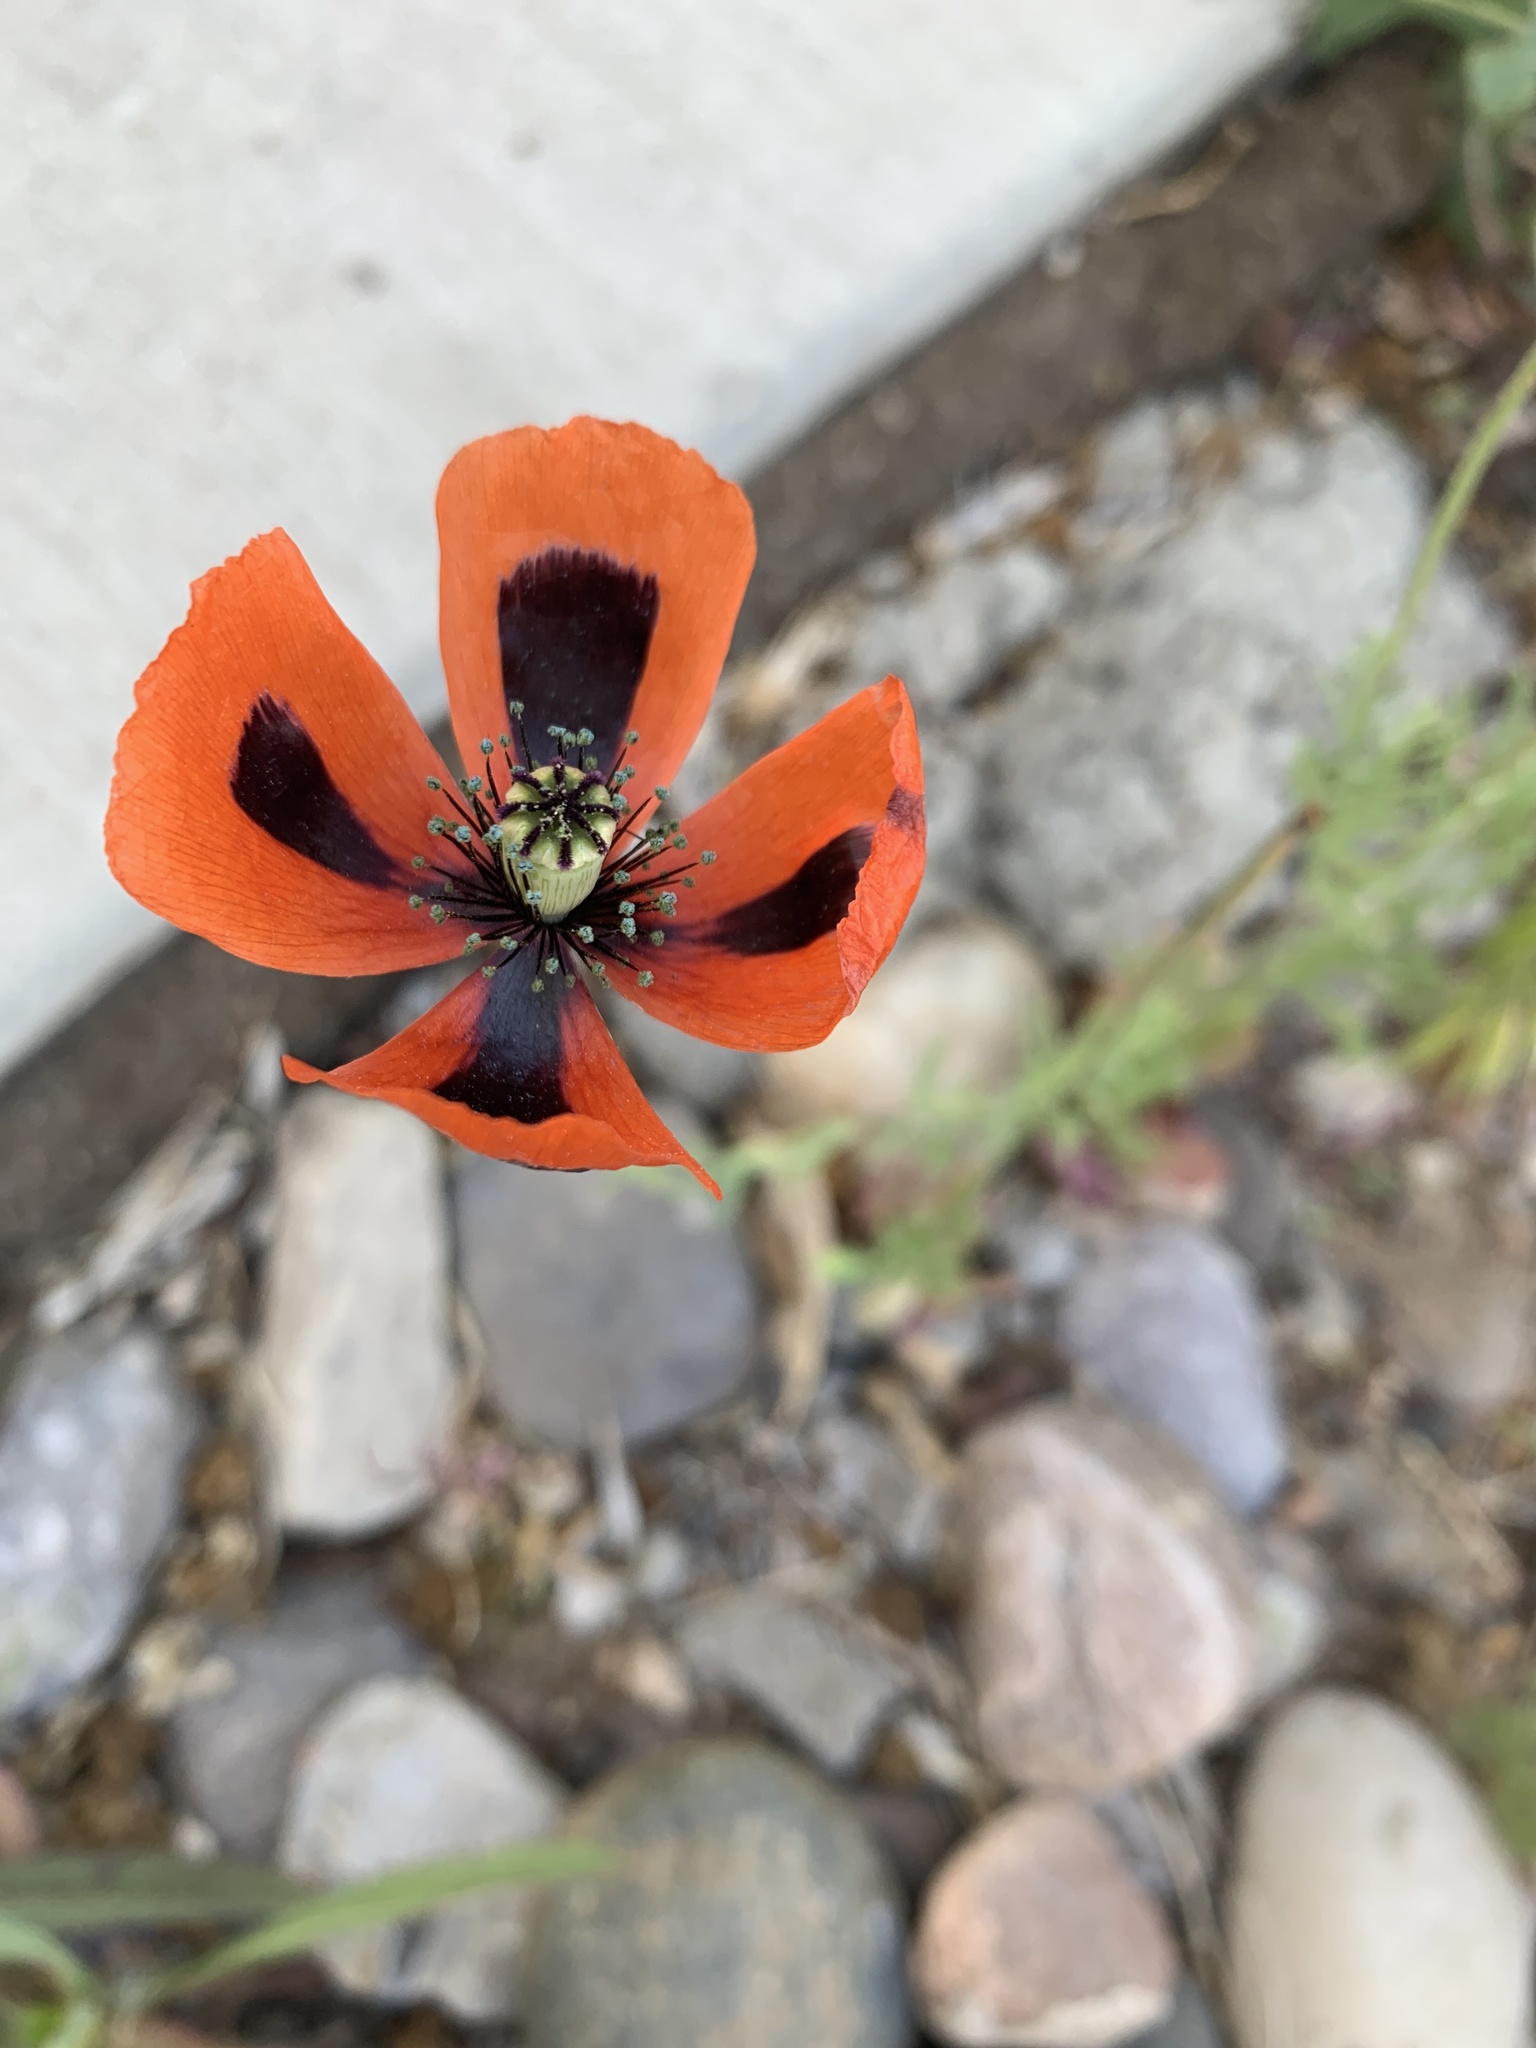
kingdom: Plantae
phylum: Tracheophyta
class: Magnoliopsida
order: Ranunculales
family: Papaveraceae
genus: Papaver
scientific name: Papaver dubium
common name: Long-headed poppy
